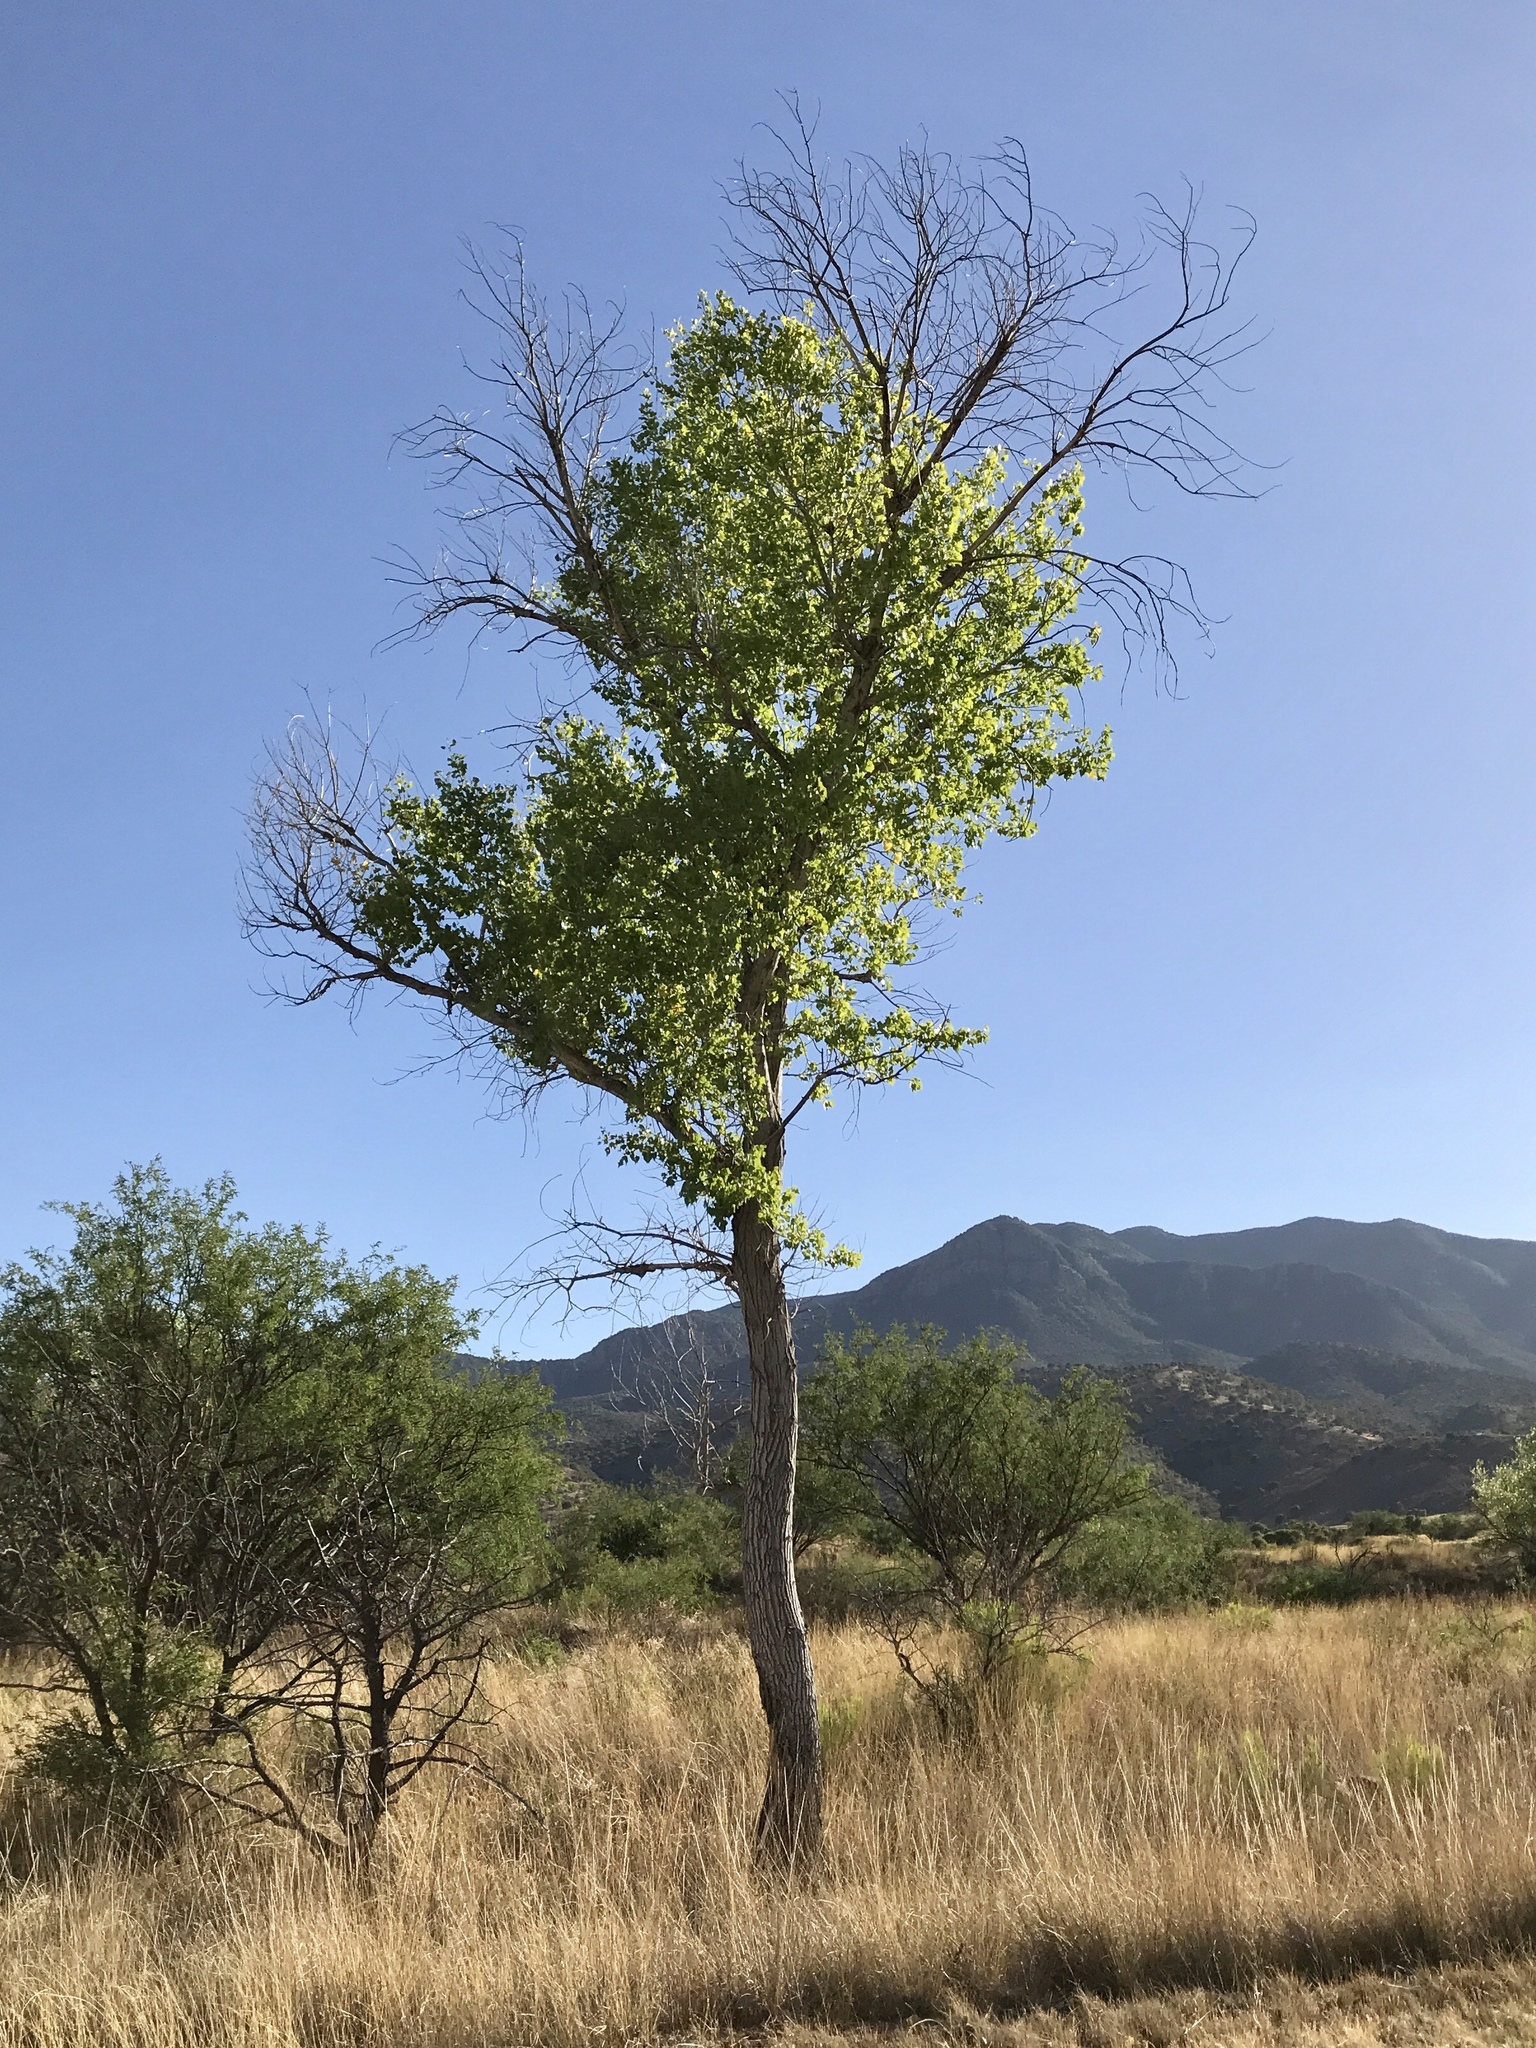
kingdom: Plantae
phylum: Tracheophyta
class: Magnoliopsida
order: Malpighiales
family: Salicaceae
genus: Populus
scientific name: Populus fremontii
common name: Fremont's cottonwood
